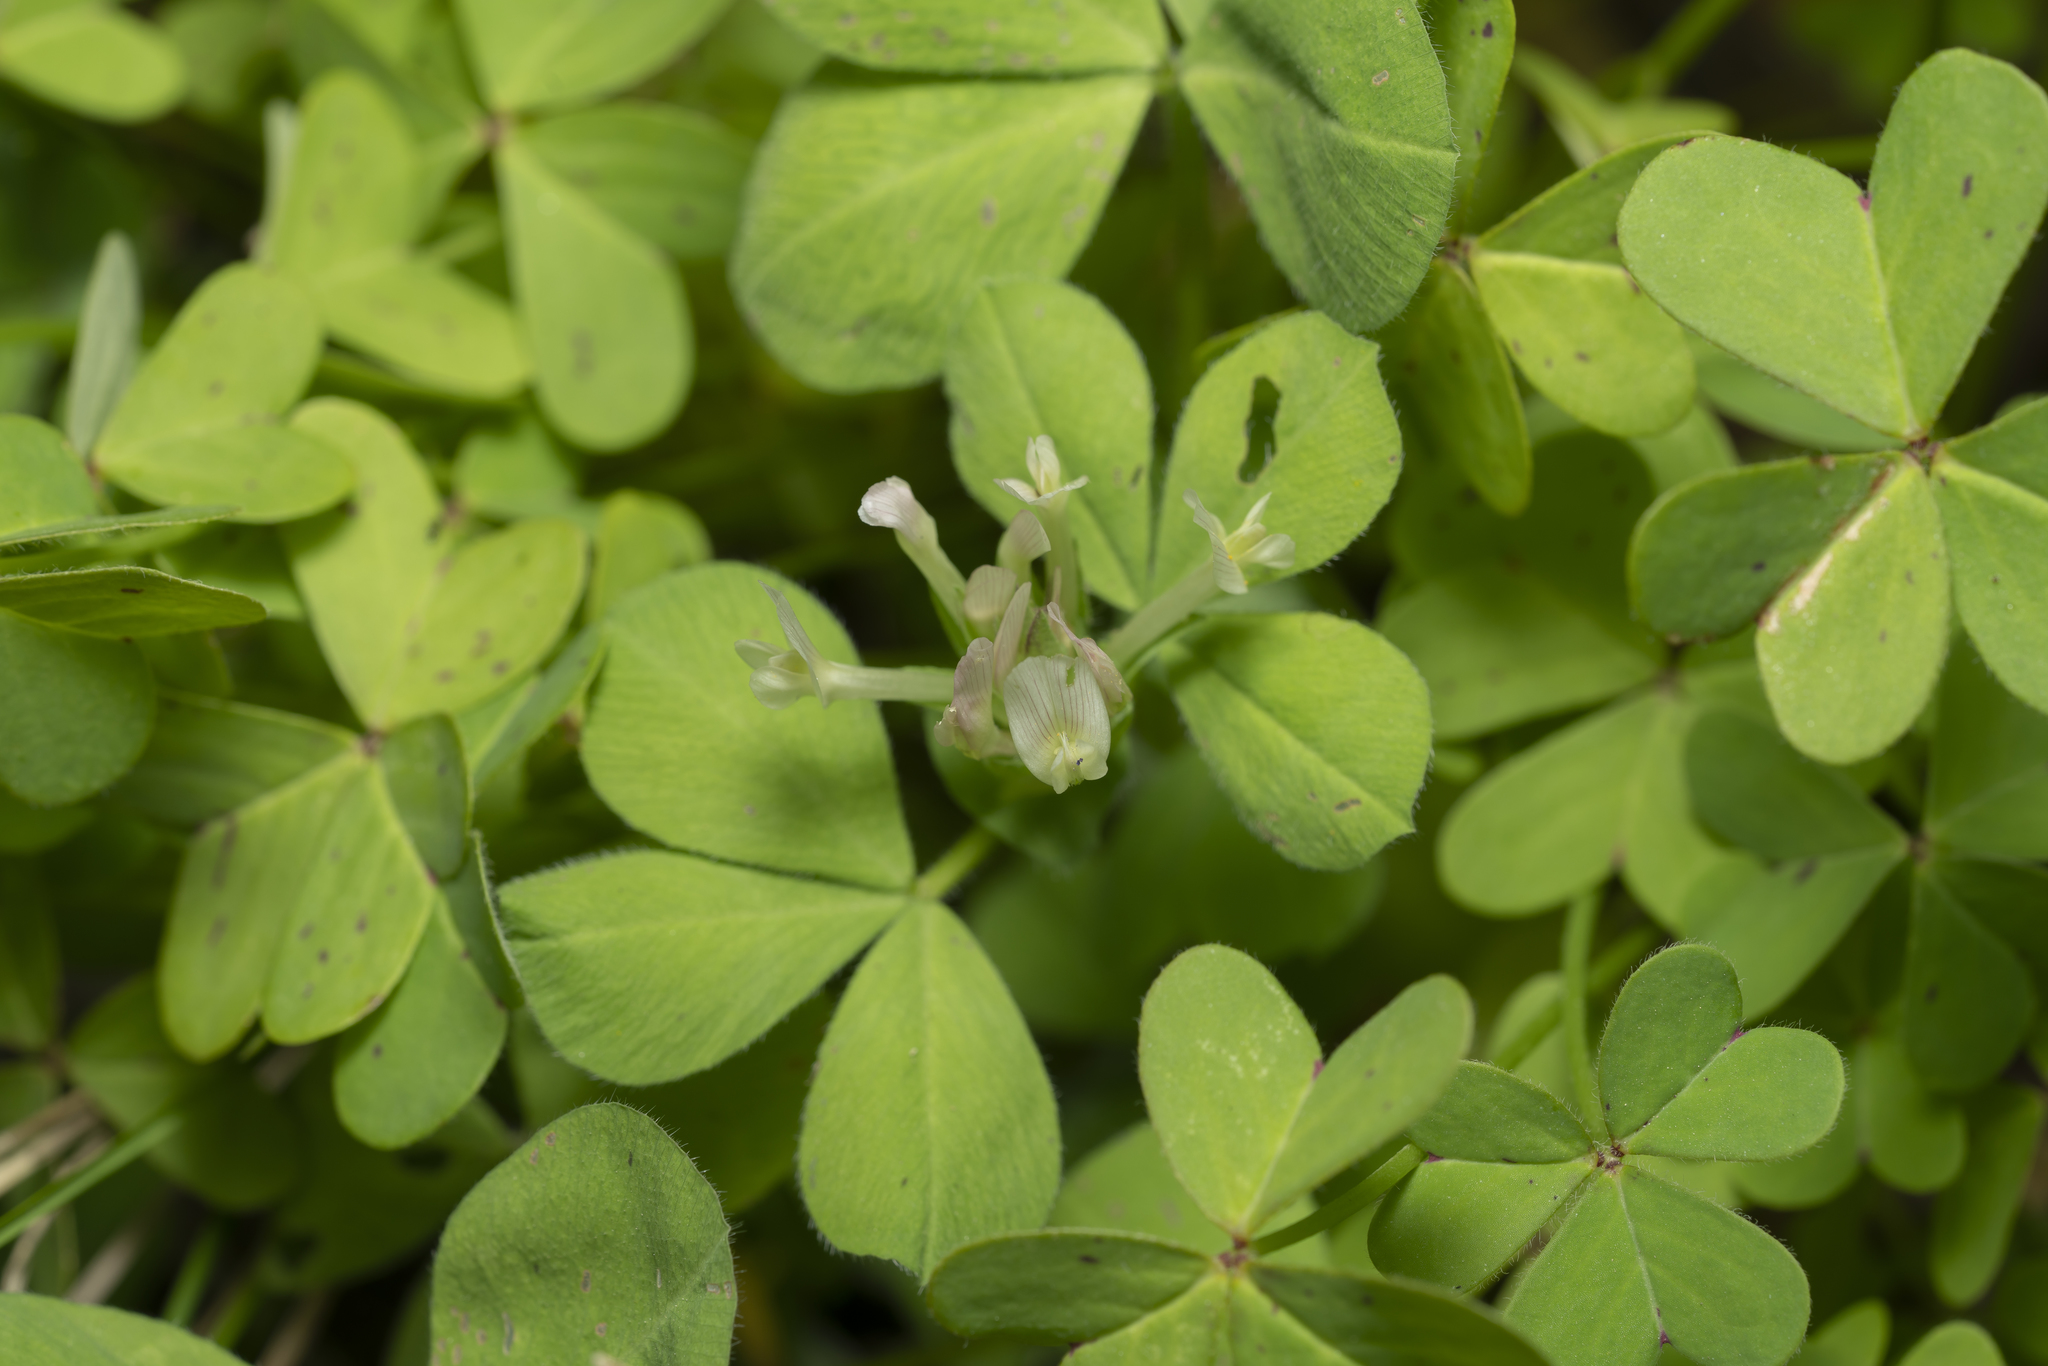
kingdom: Plantae
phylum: Tracheophyta
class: Magnoliopsida
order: Fabales
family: Fabaceae
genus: Trifolium
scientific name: Trifolium clypeatum
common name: Shield clover
